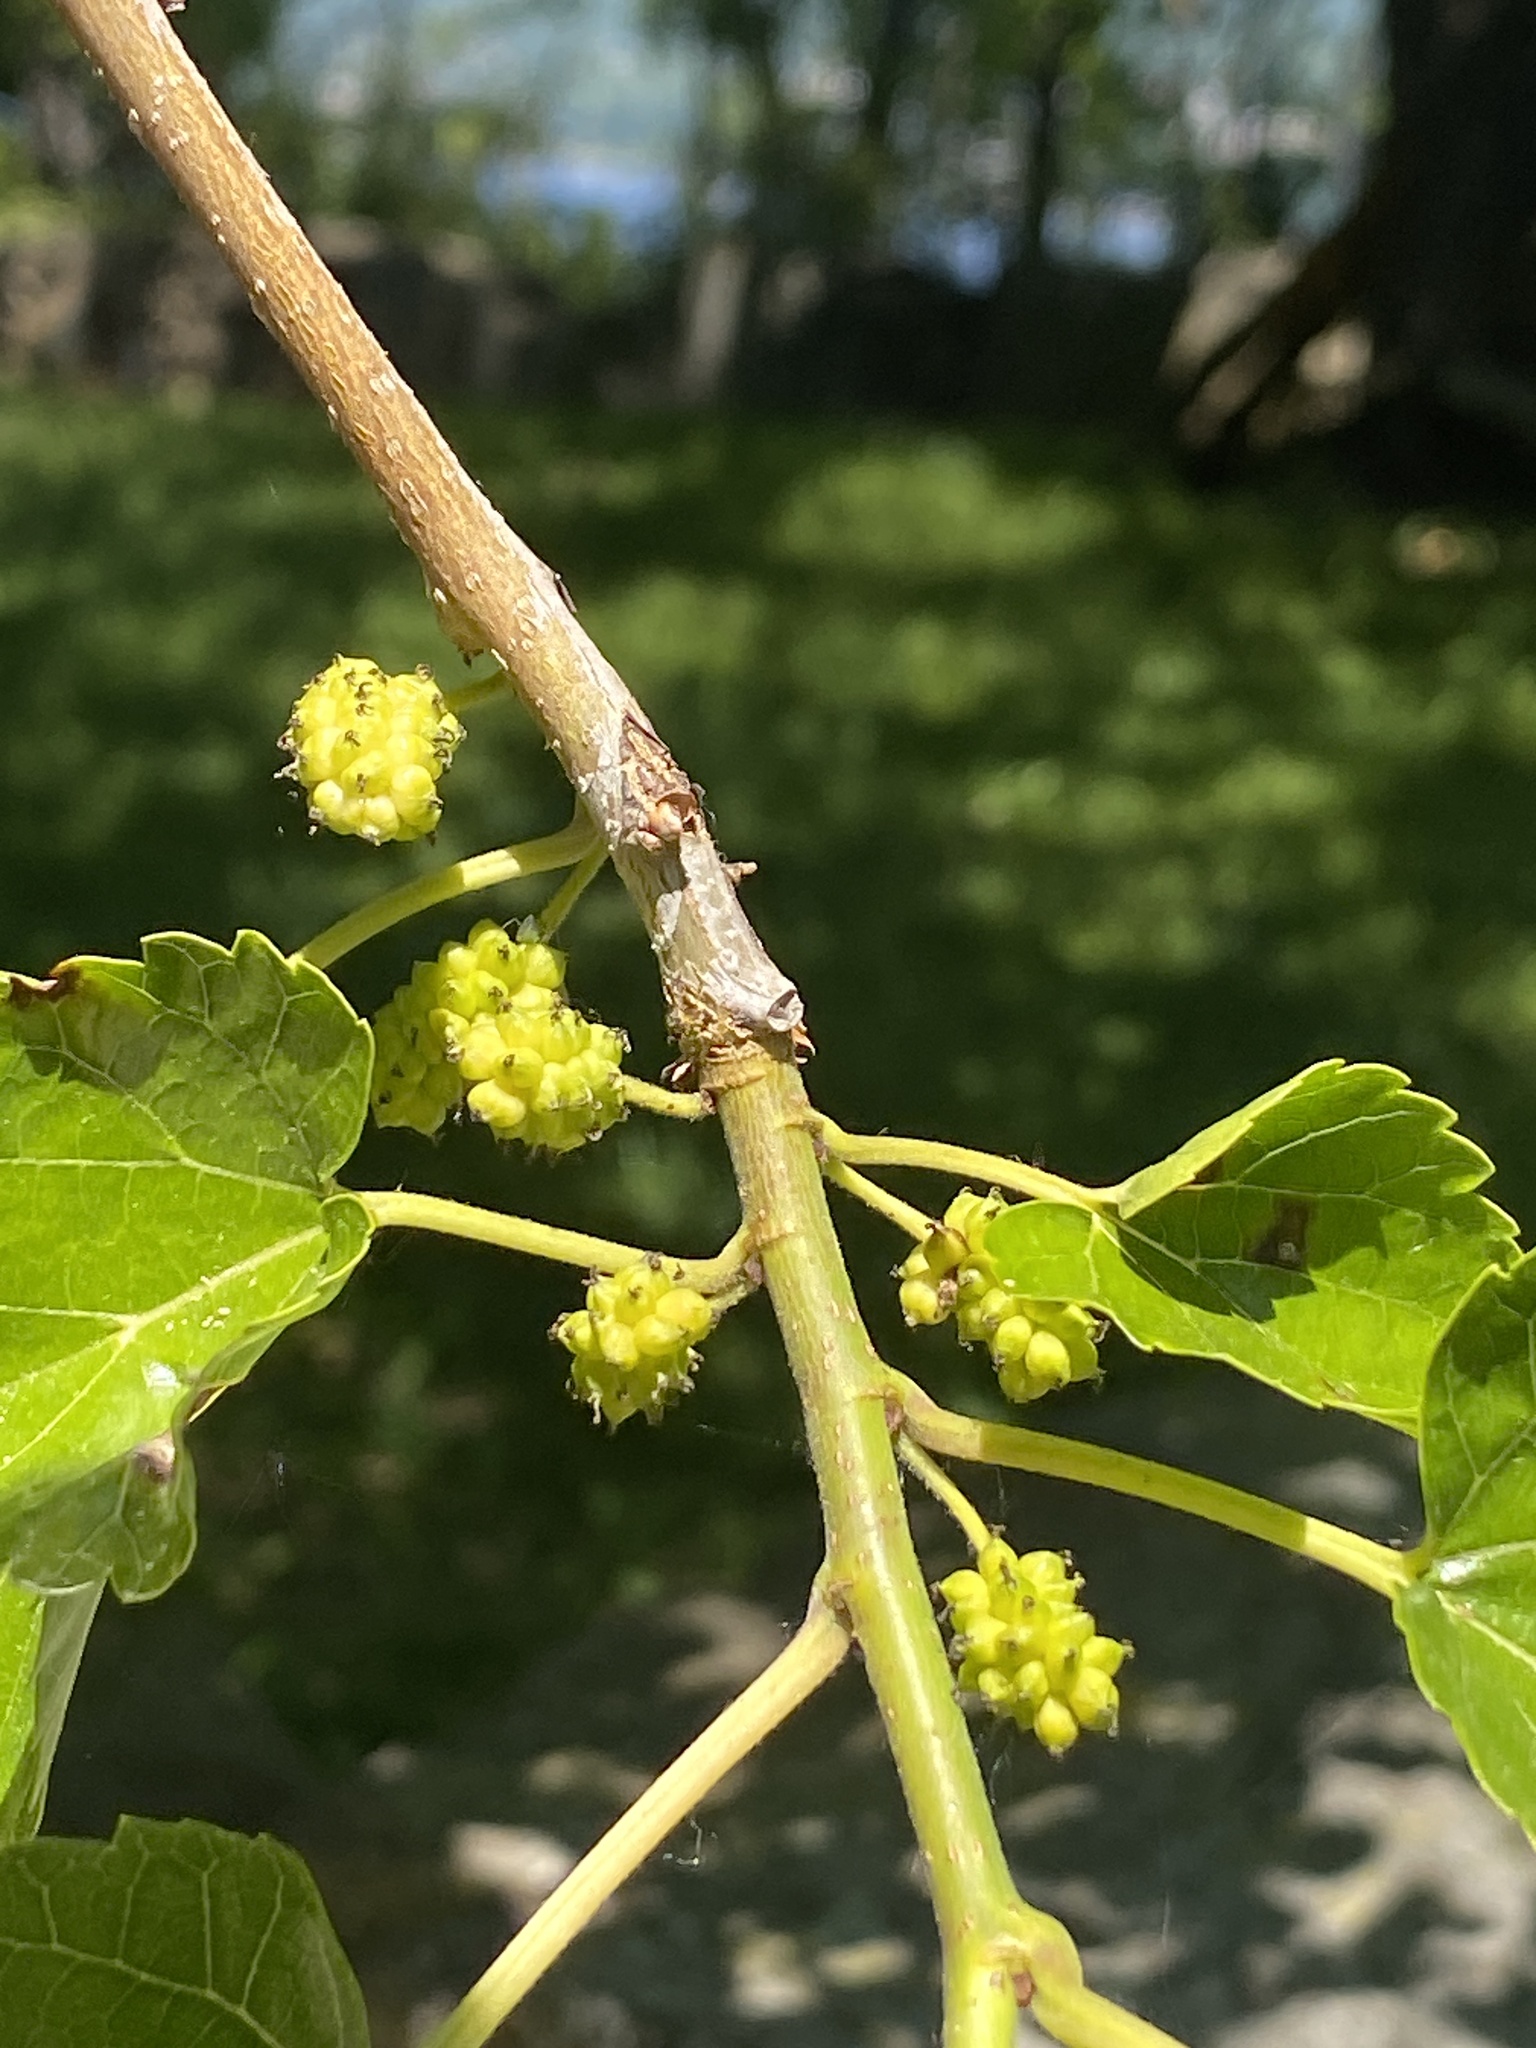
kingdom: Plantae
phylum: Tracheophyta
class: Magnoliopsida
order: Rosales
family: Moraceae
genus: Morus
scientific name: Morus alba
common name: White mulberry
